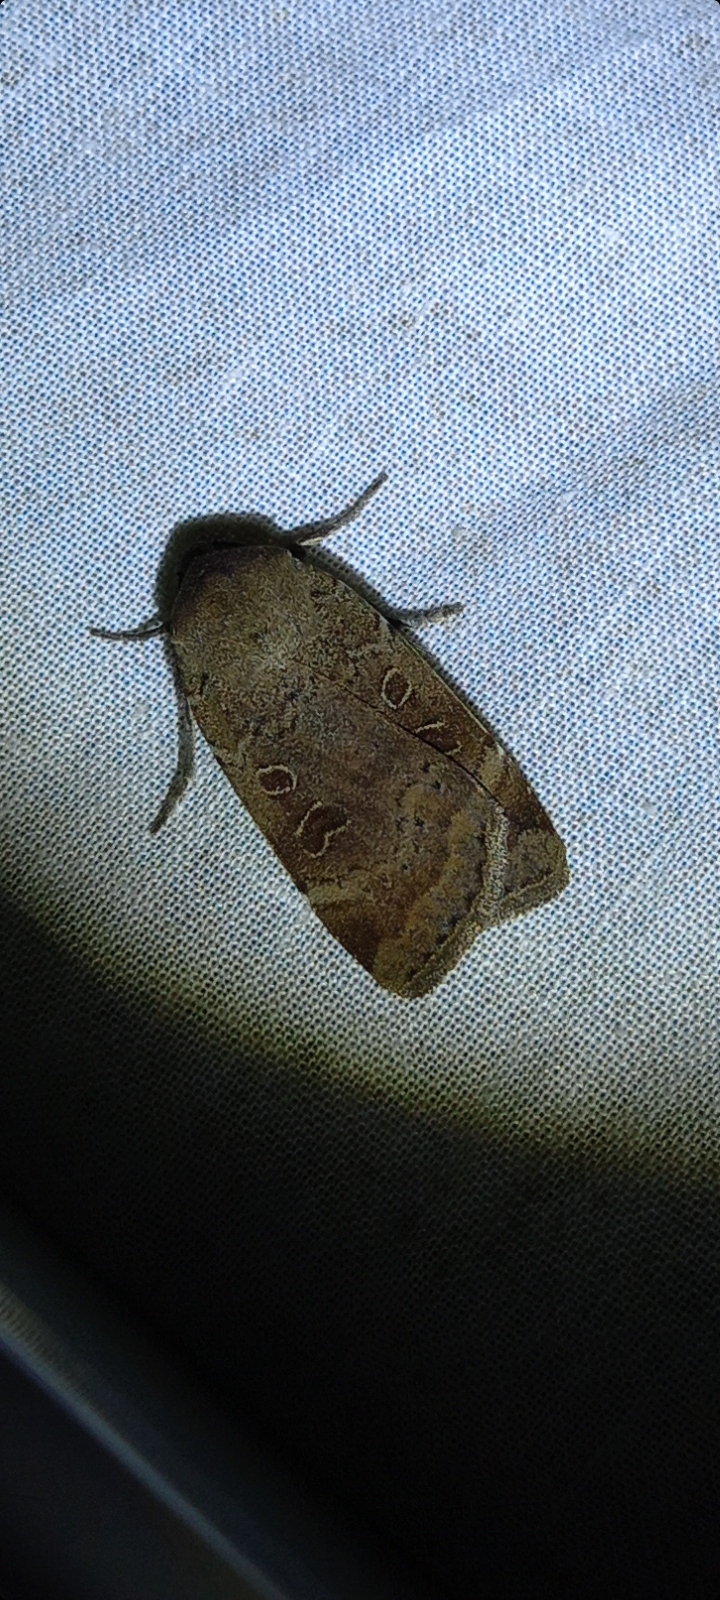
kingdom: Animalia
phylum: Arthropoda
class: Insecta
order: Lepidoptera
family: Noctuidae
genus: Noctua
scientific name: Noctua comes
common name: Lesser yellow underwing
